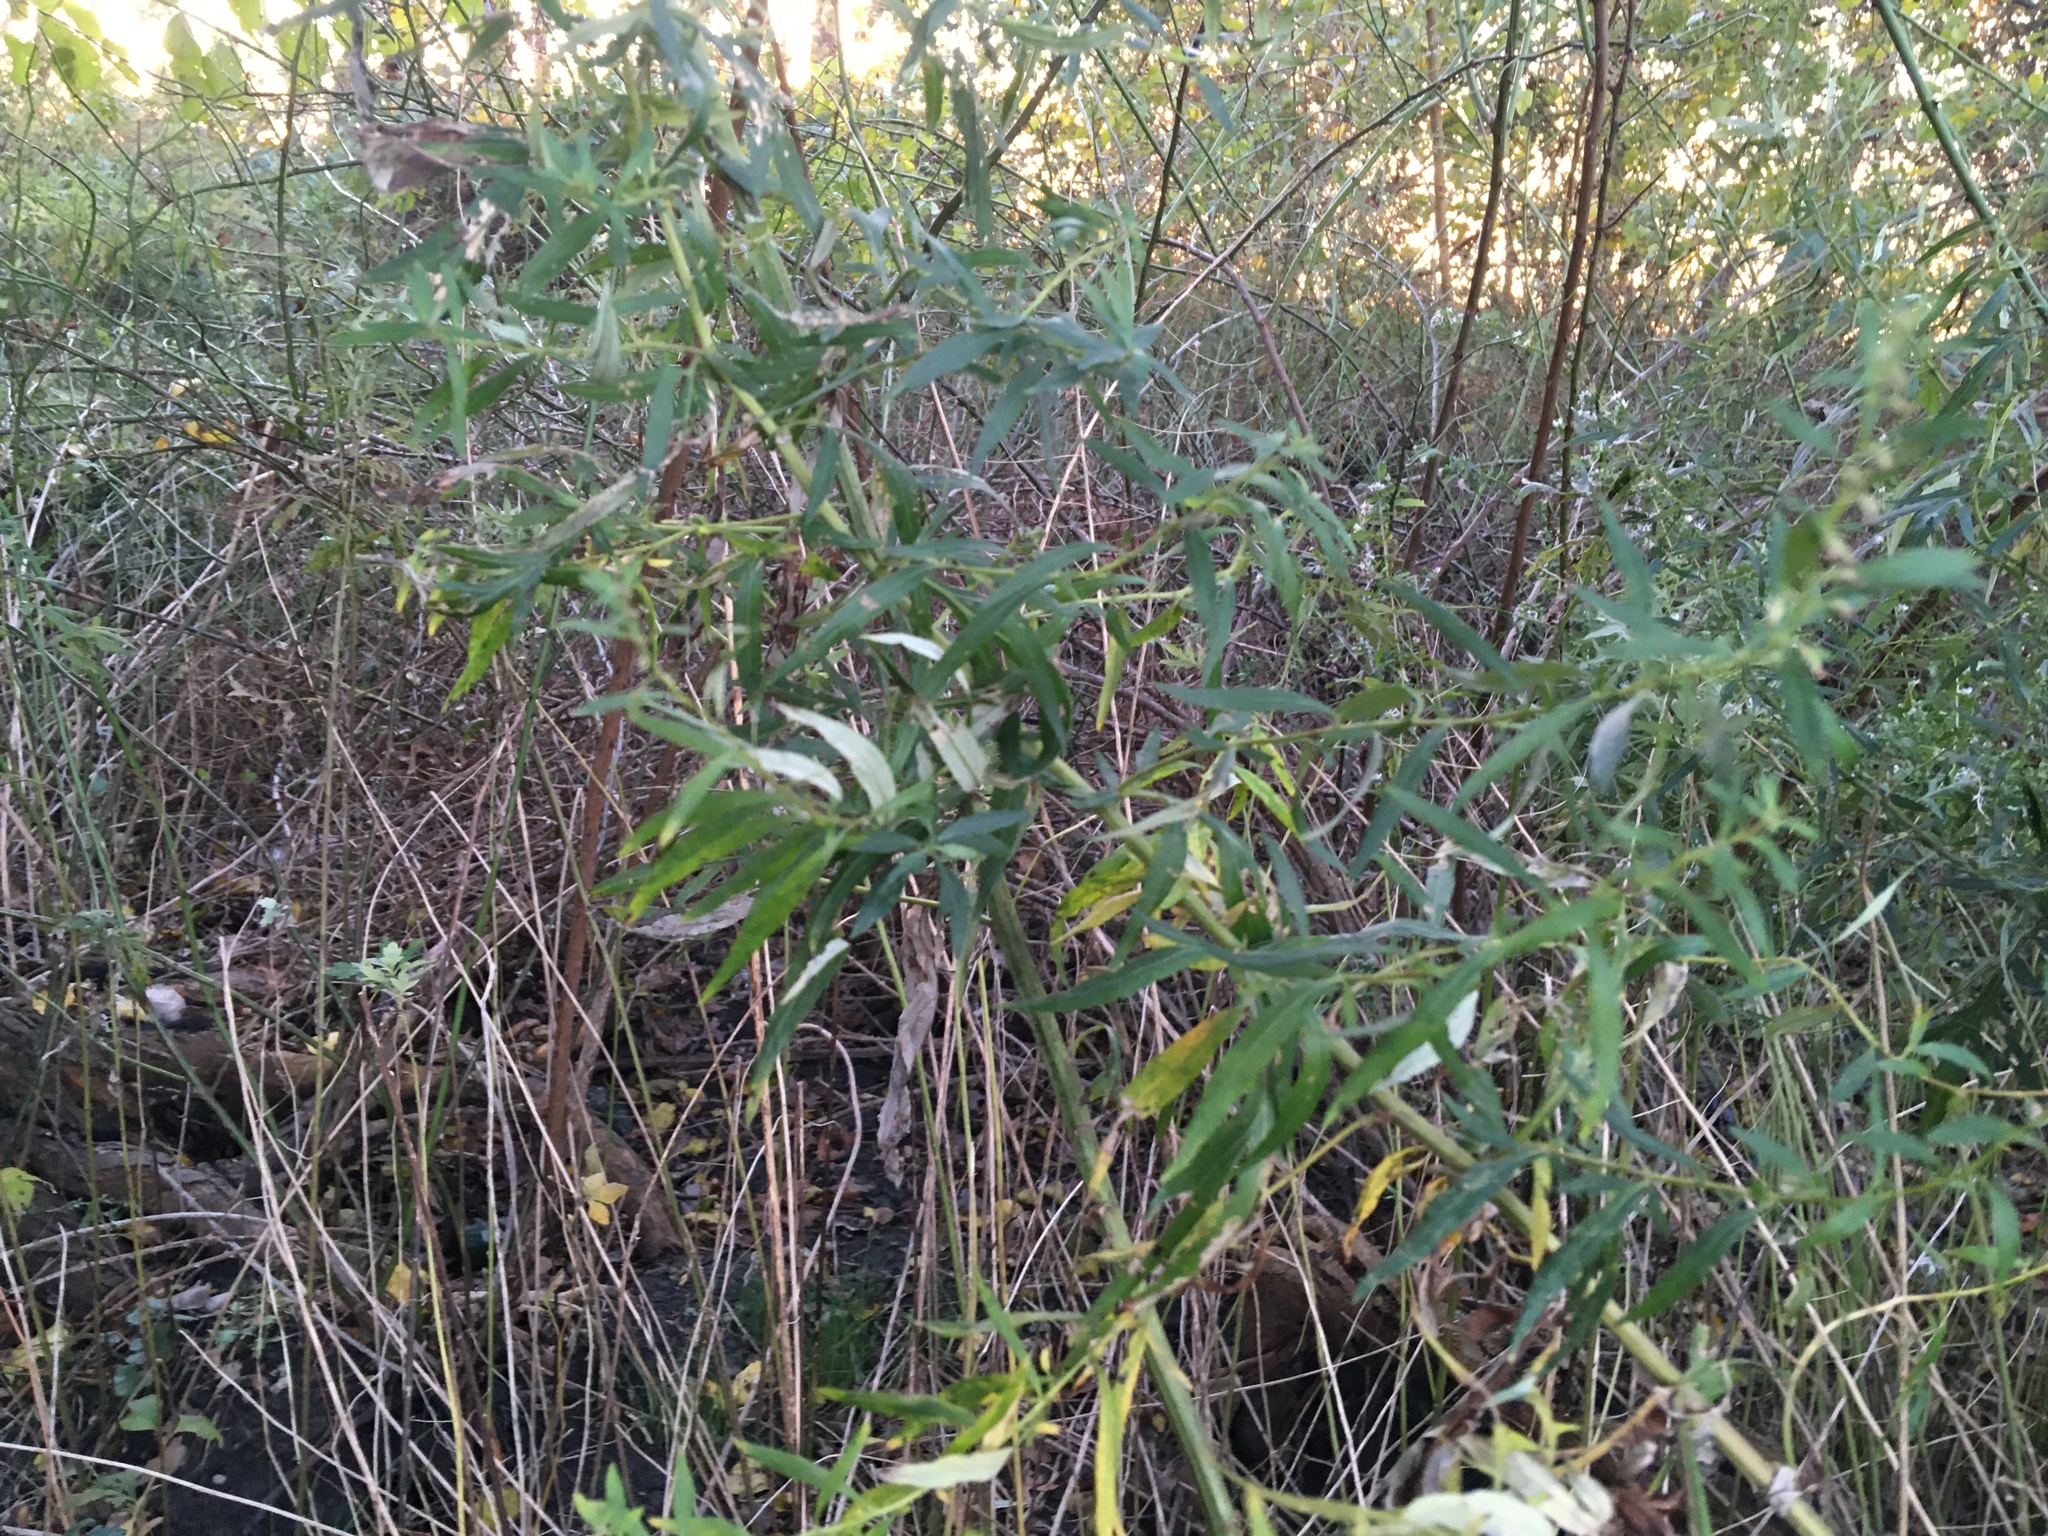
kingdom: Plantae
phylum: Tracheophyta
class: Magnoliopsida
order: Asterales
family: Asteraceae
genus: Artemisia
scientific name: Artemisia vulgaris
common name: Mugwort
